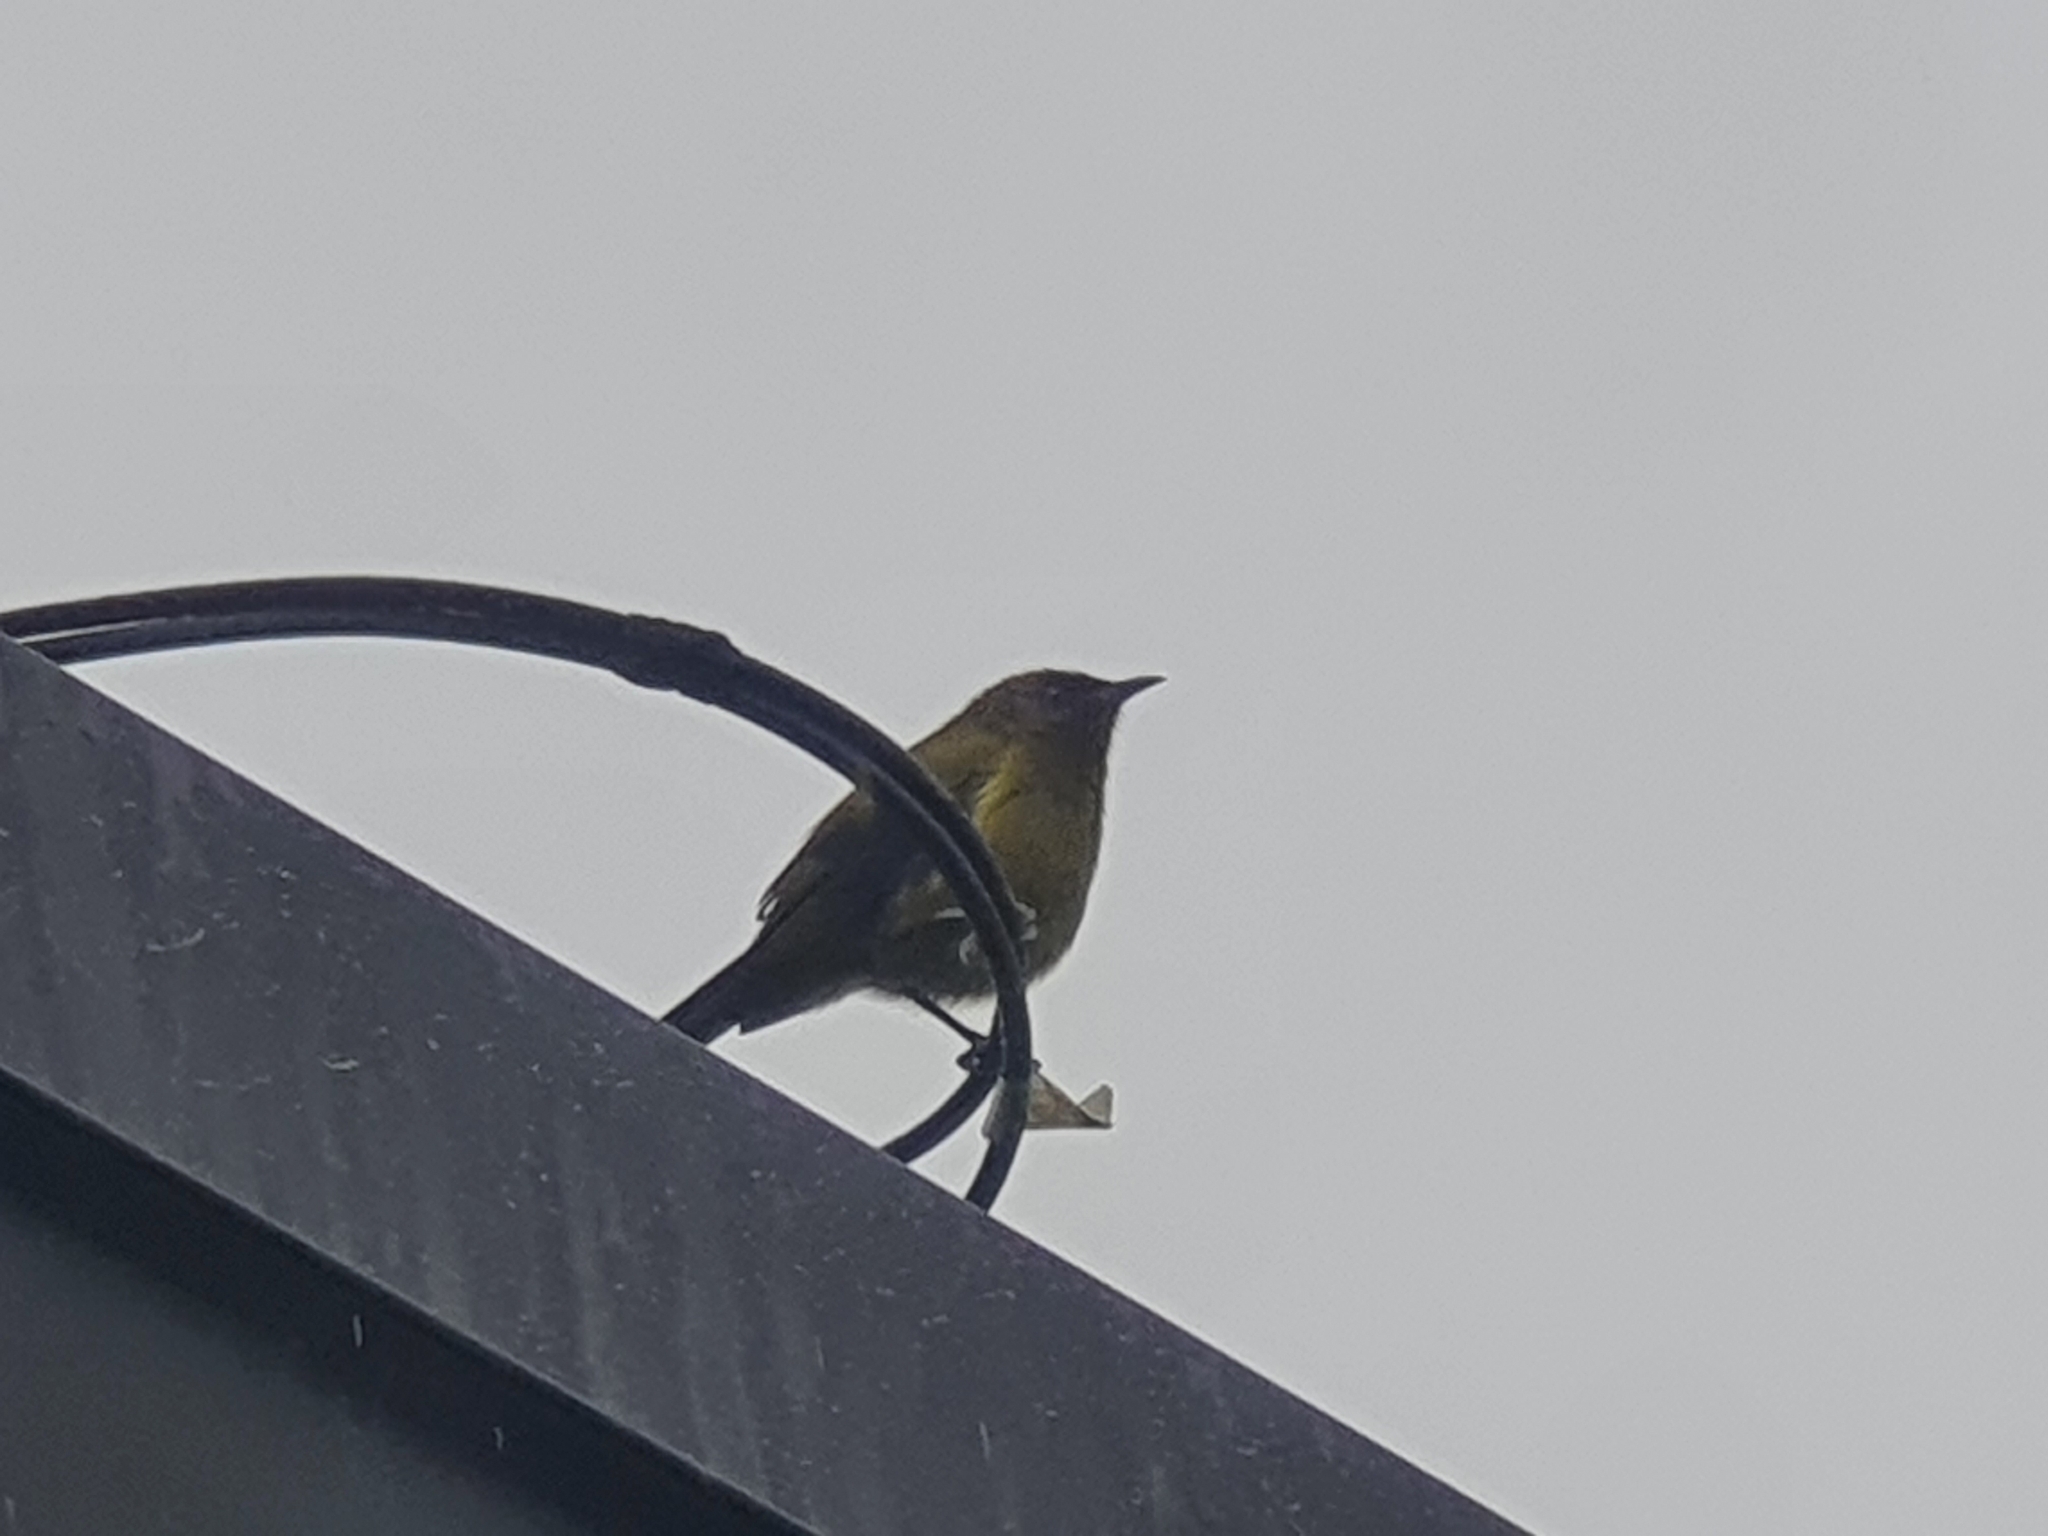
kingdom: Animalia
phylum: Chordata
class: Aves
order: Passeriformes
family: Meliphagidae
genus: Anthornis
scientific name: Anthornis melanura
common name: New zealand bellbird
